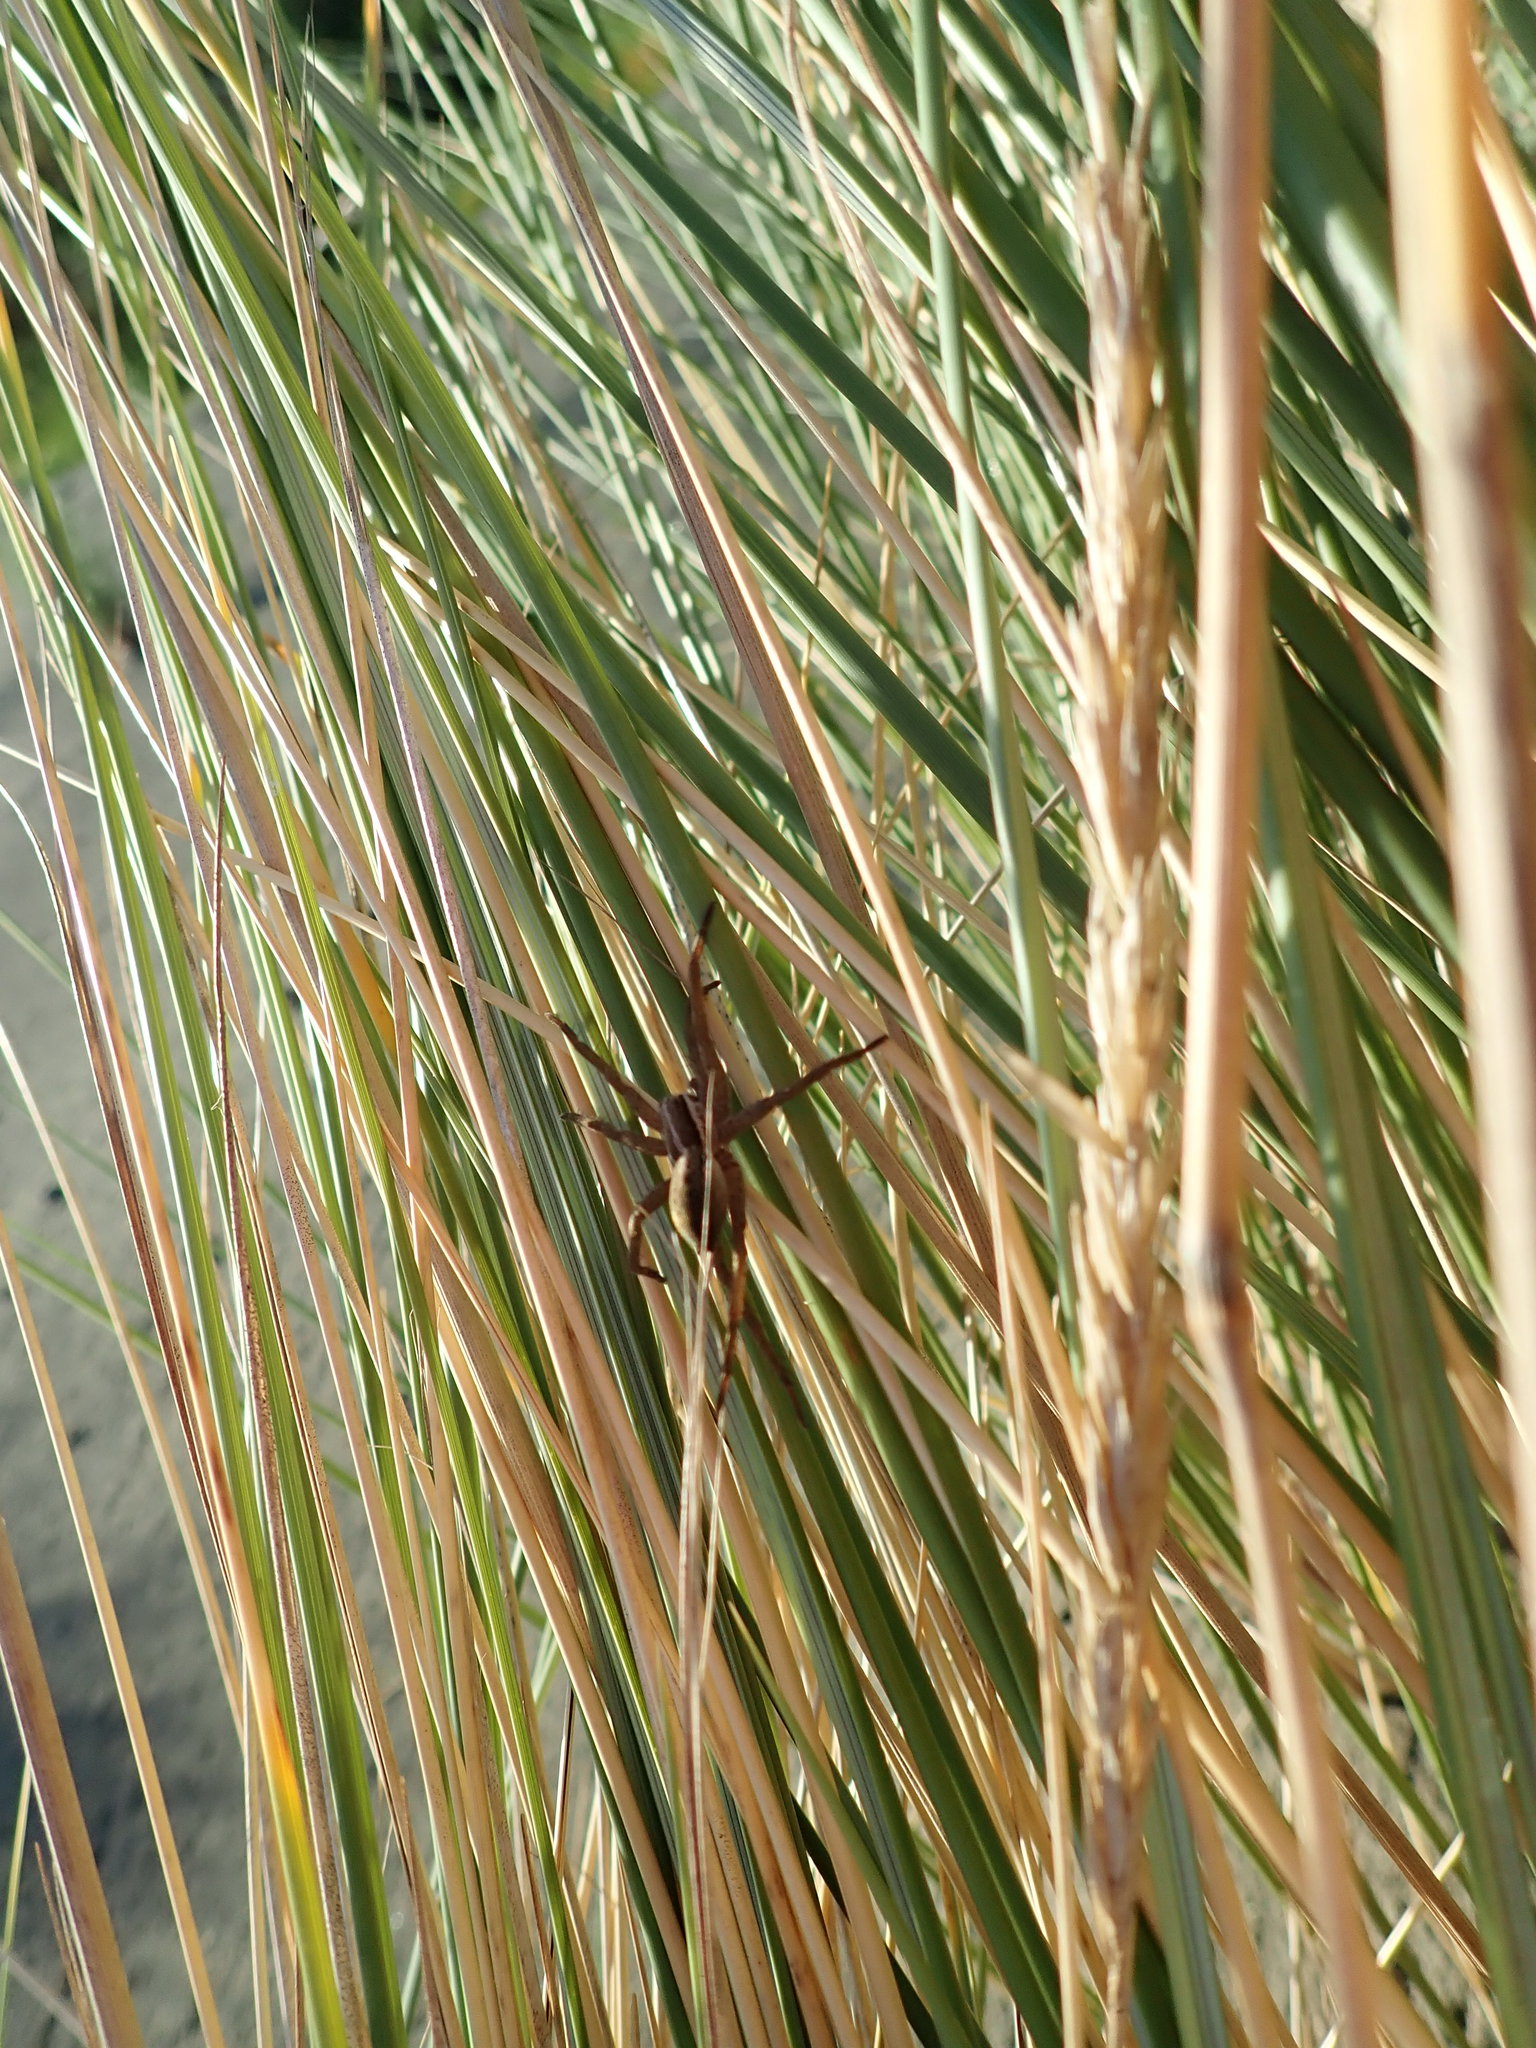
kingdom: Animalia
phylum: Arthropoda
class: Arachnida
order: Araneae
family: Pisauridae
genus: Dolomedes
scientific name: Dolomedes minor
